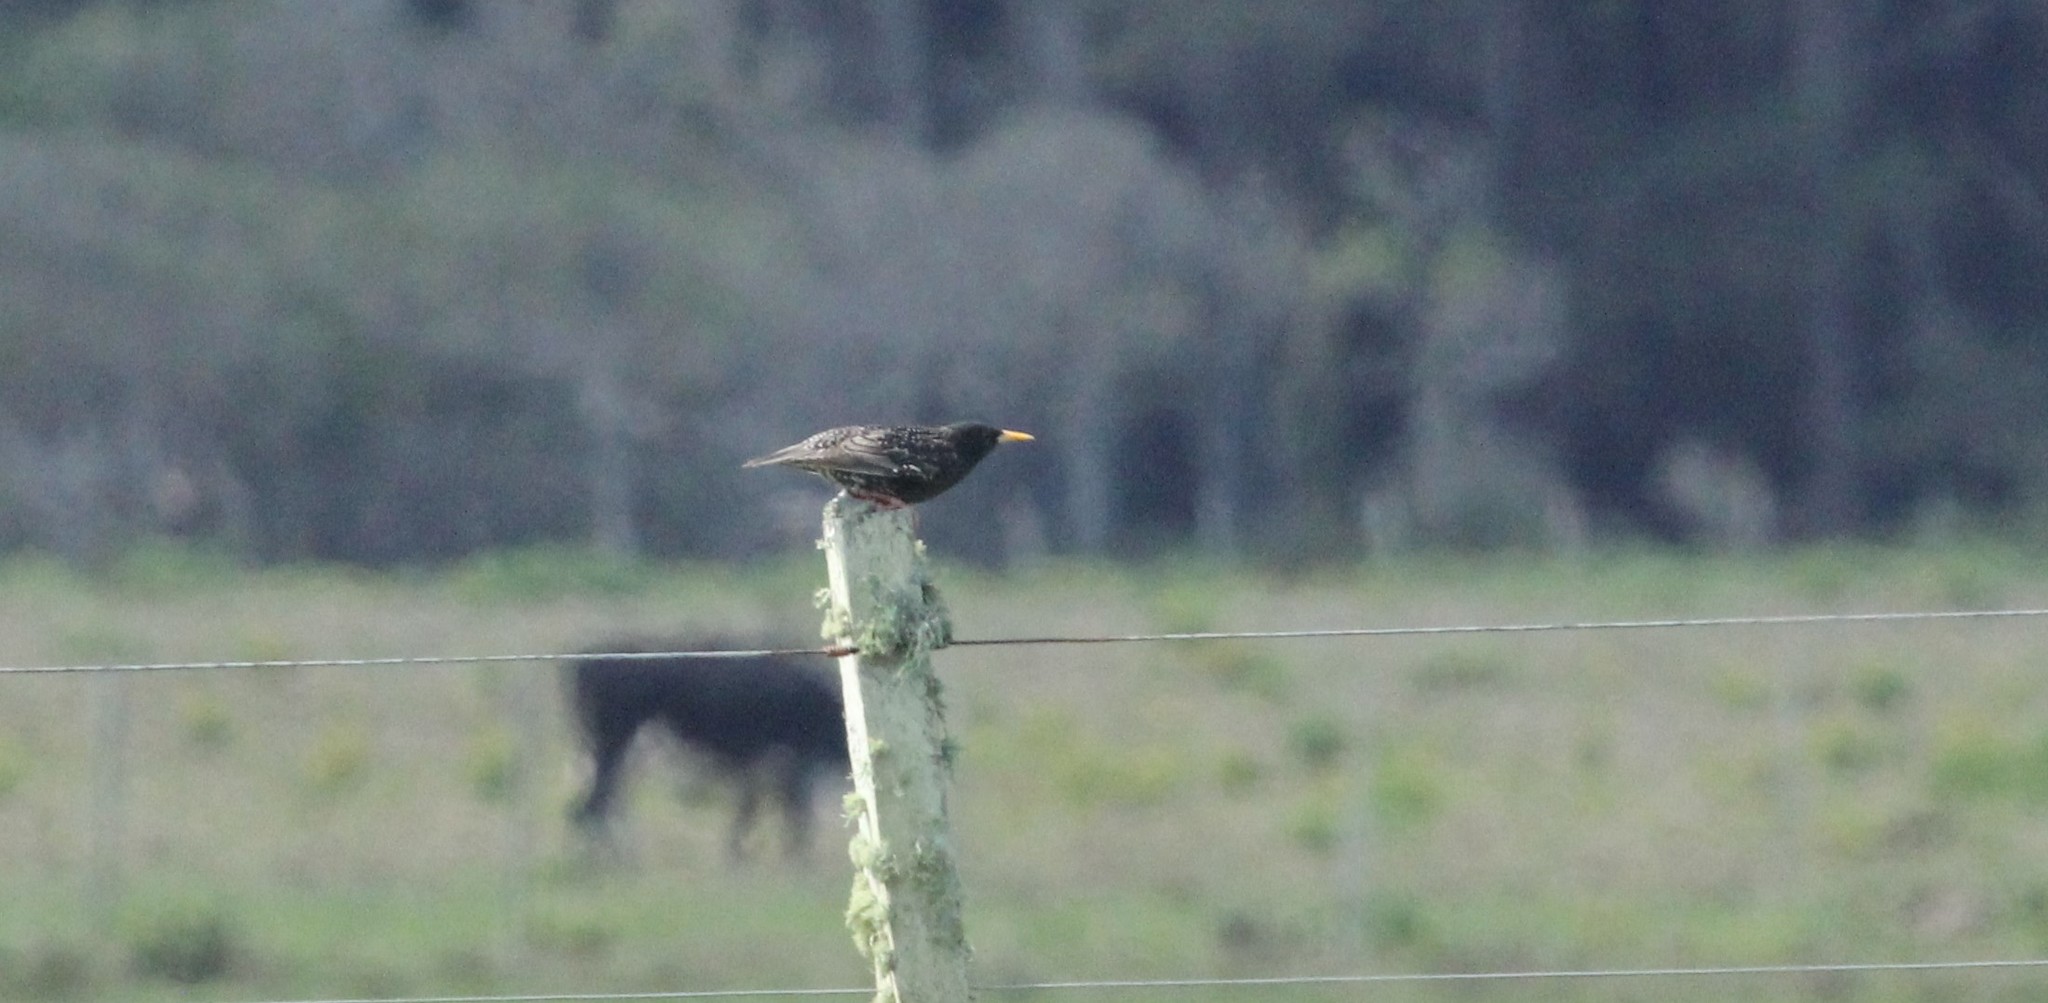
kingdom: Animalia
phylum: Chordata
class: Aves
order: Passeriformes
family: Sturnidae
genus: Sturnus
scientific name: Sturnus vulgaris
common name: Common starling
